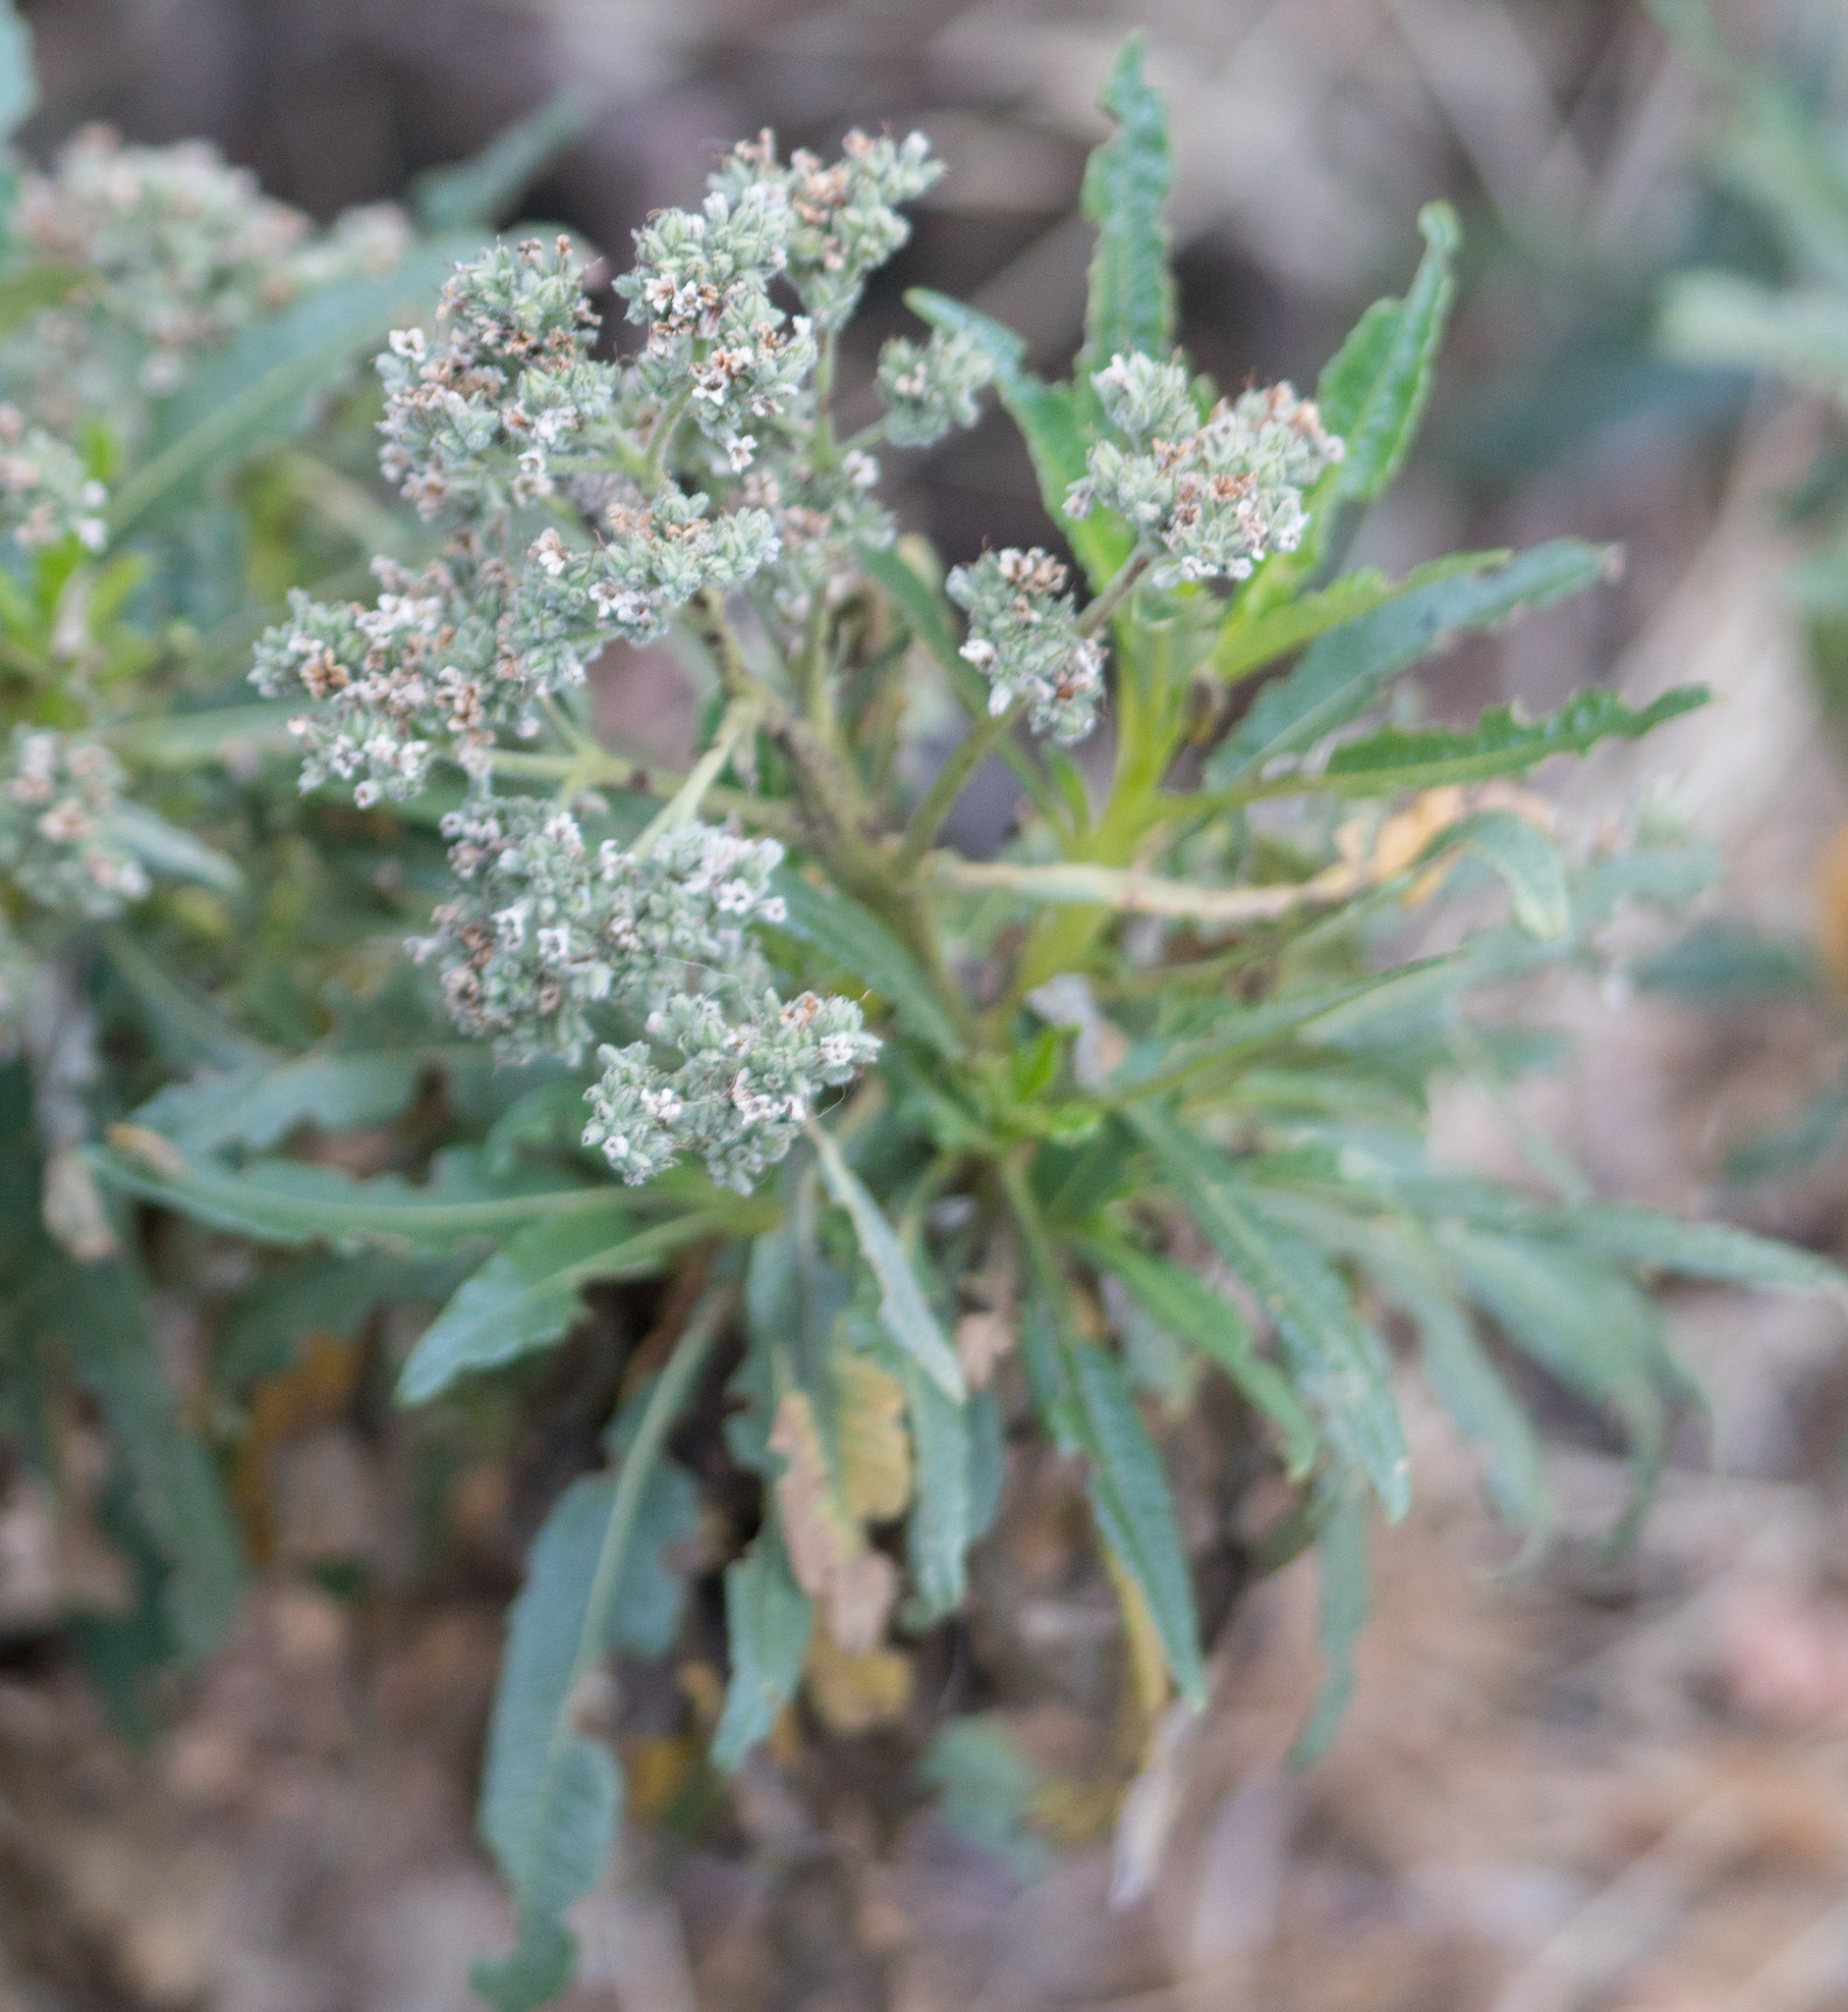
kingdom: Plantae
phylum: Tracheophyta
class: Magnoliopsida
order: Boraginales
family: Namaceae
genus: Eriodictyon
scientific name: Eriodictyon trichocalyx
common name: Hairy yerba-santa
